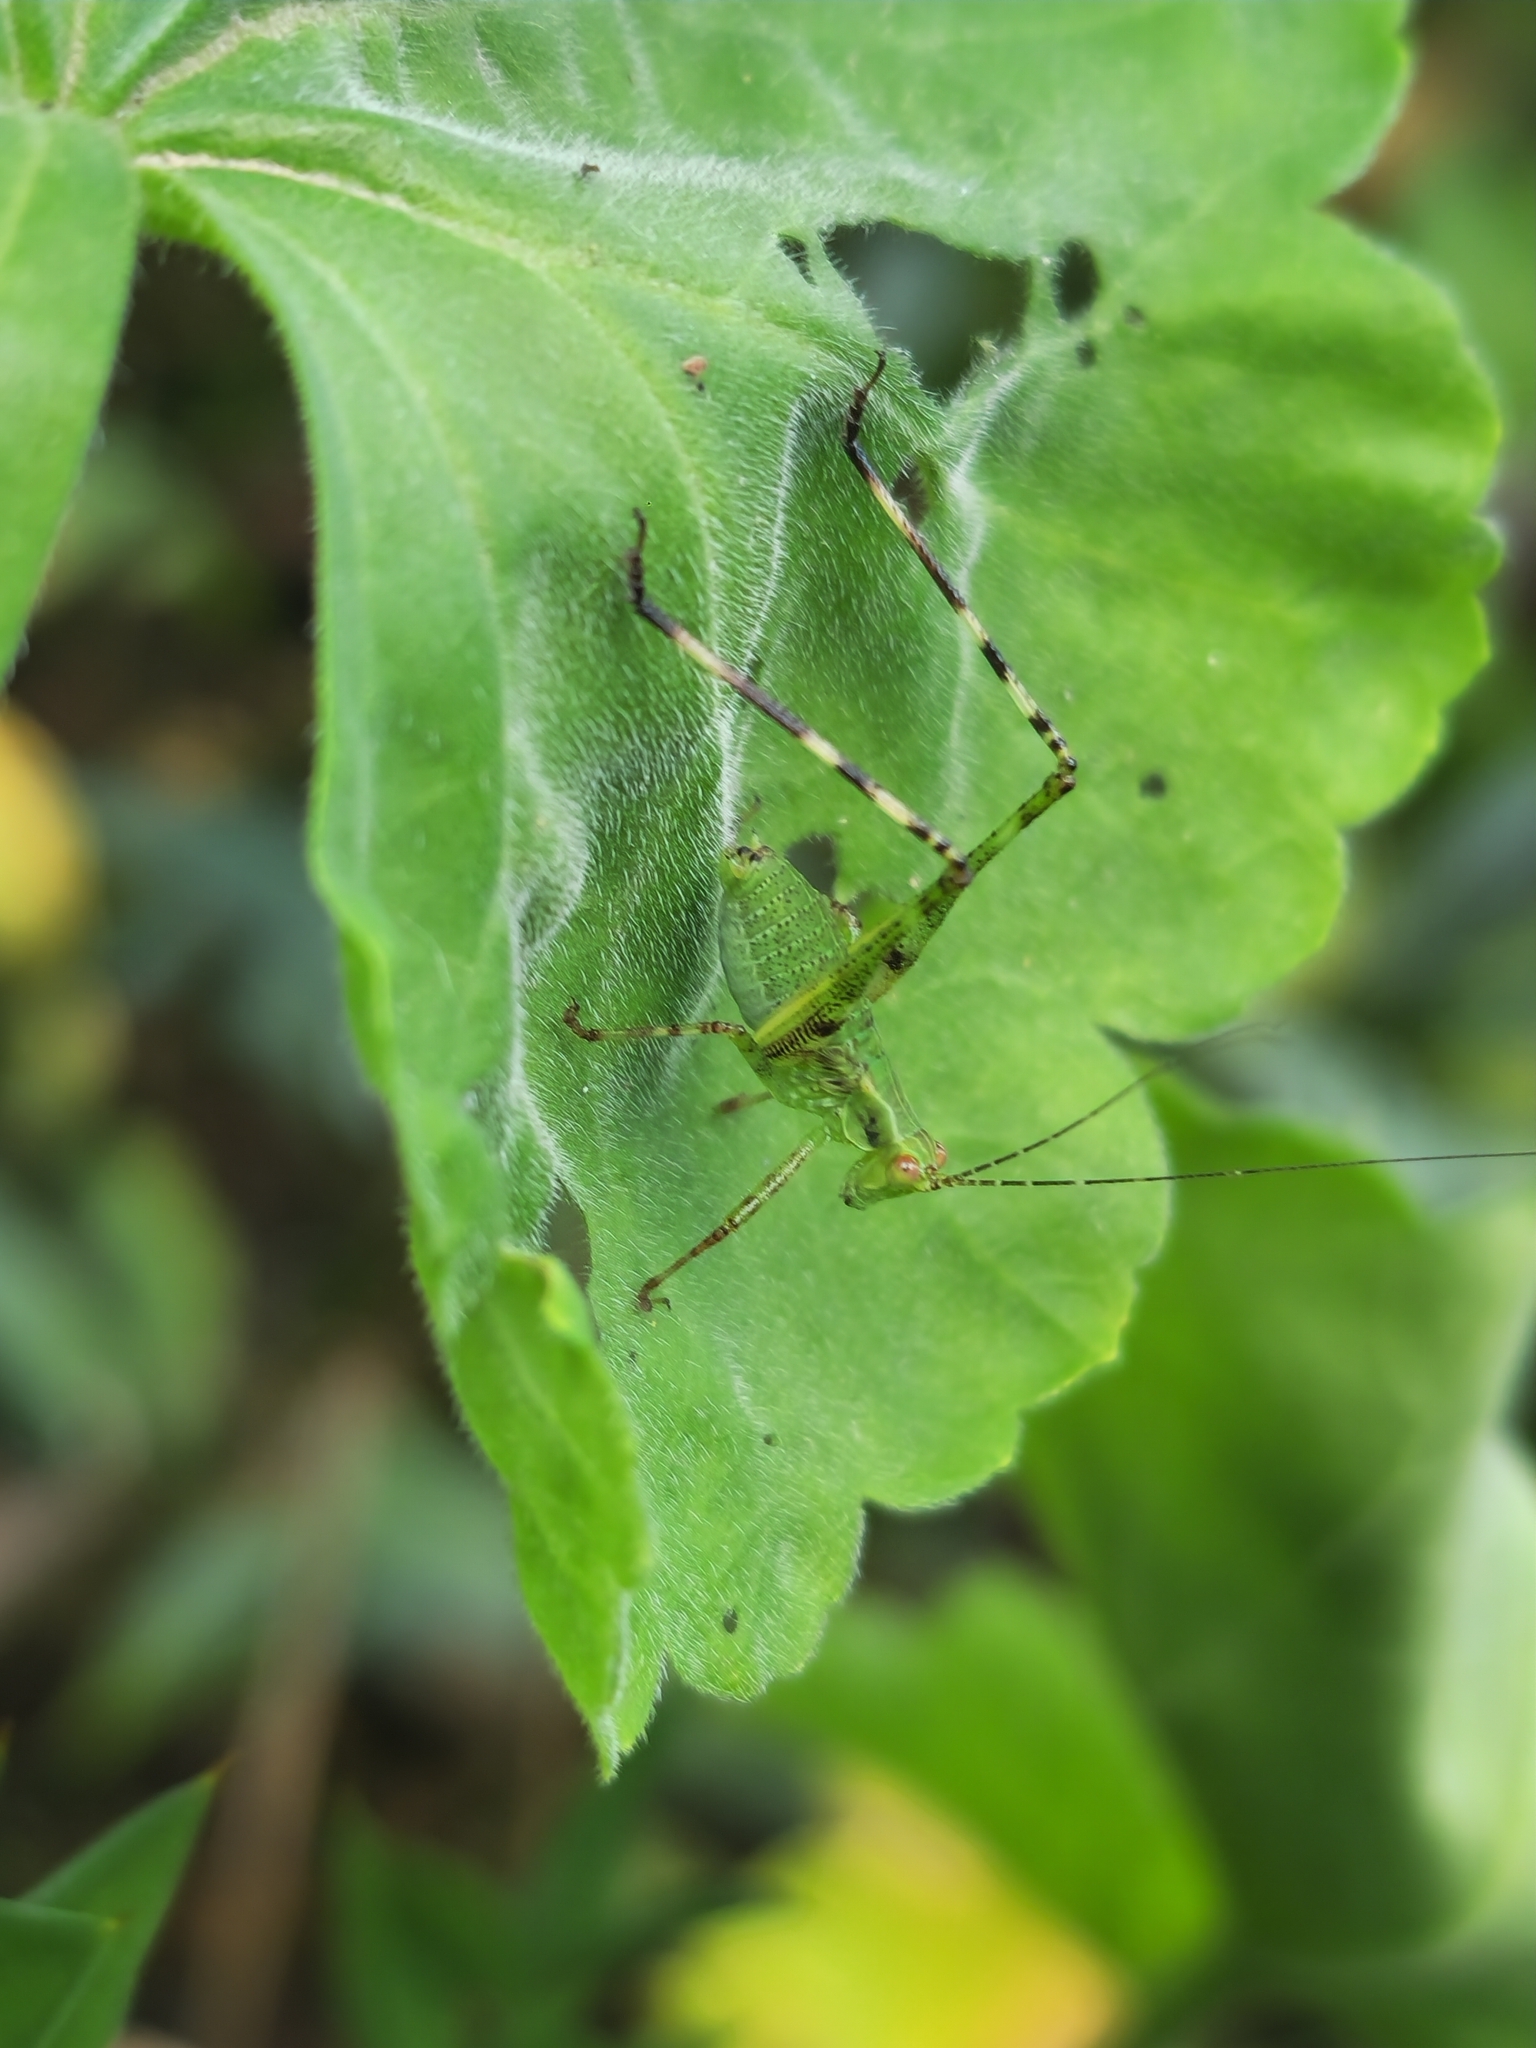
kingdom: Animalia
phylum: Arthropoda
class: Insecta
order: Orthoptera
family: Tettigoniidae
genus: Ligocatinus
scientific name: Ligocatinus spinatus
